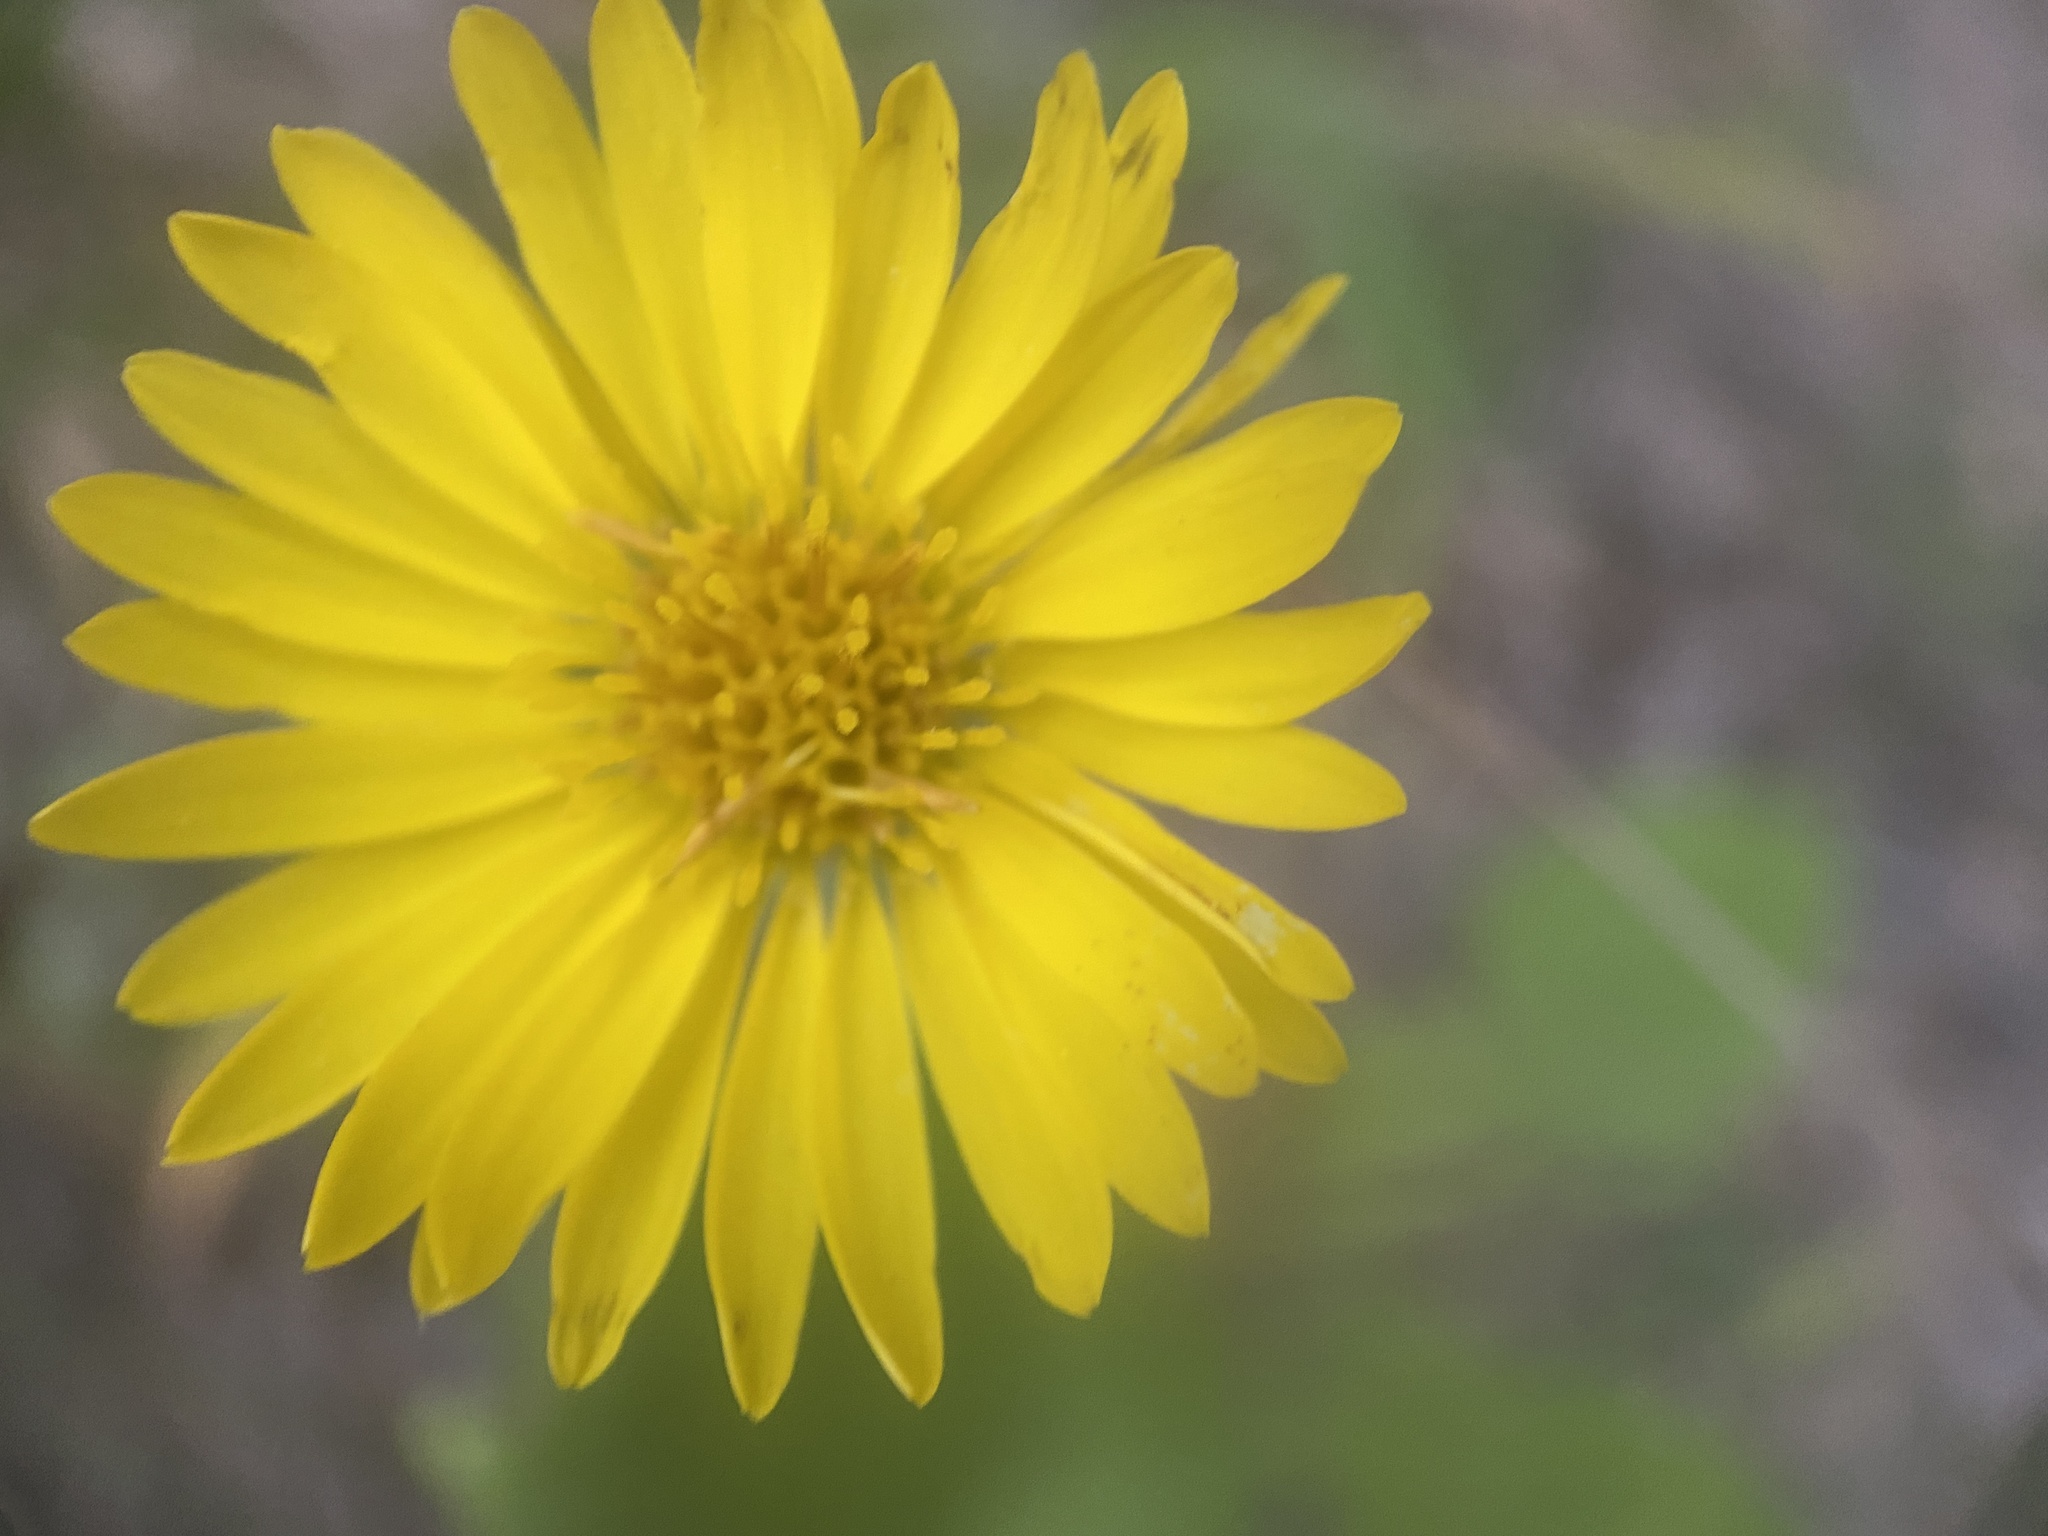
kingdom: Plantae
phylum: Tracheophyta
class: Magnoliopsida
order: Asterales
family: Asteraceae
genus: Heterotheca
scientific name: Heterotheca villosa
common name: Hairy false goldenaster
